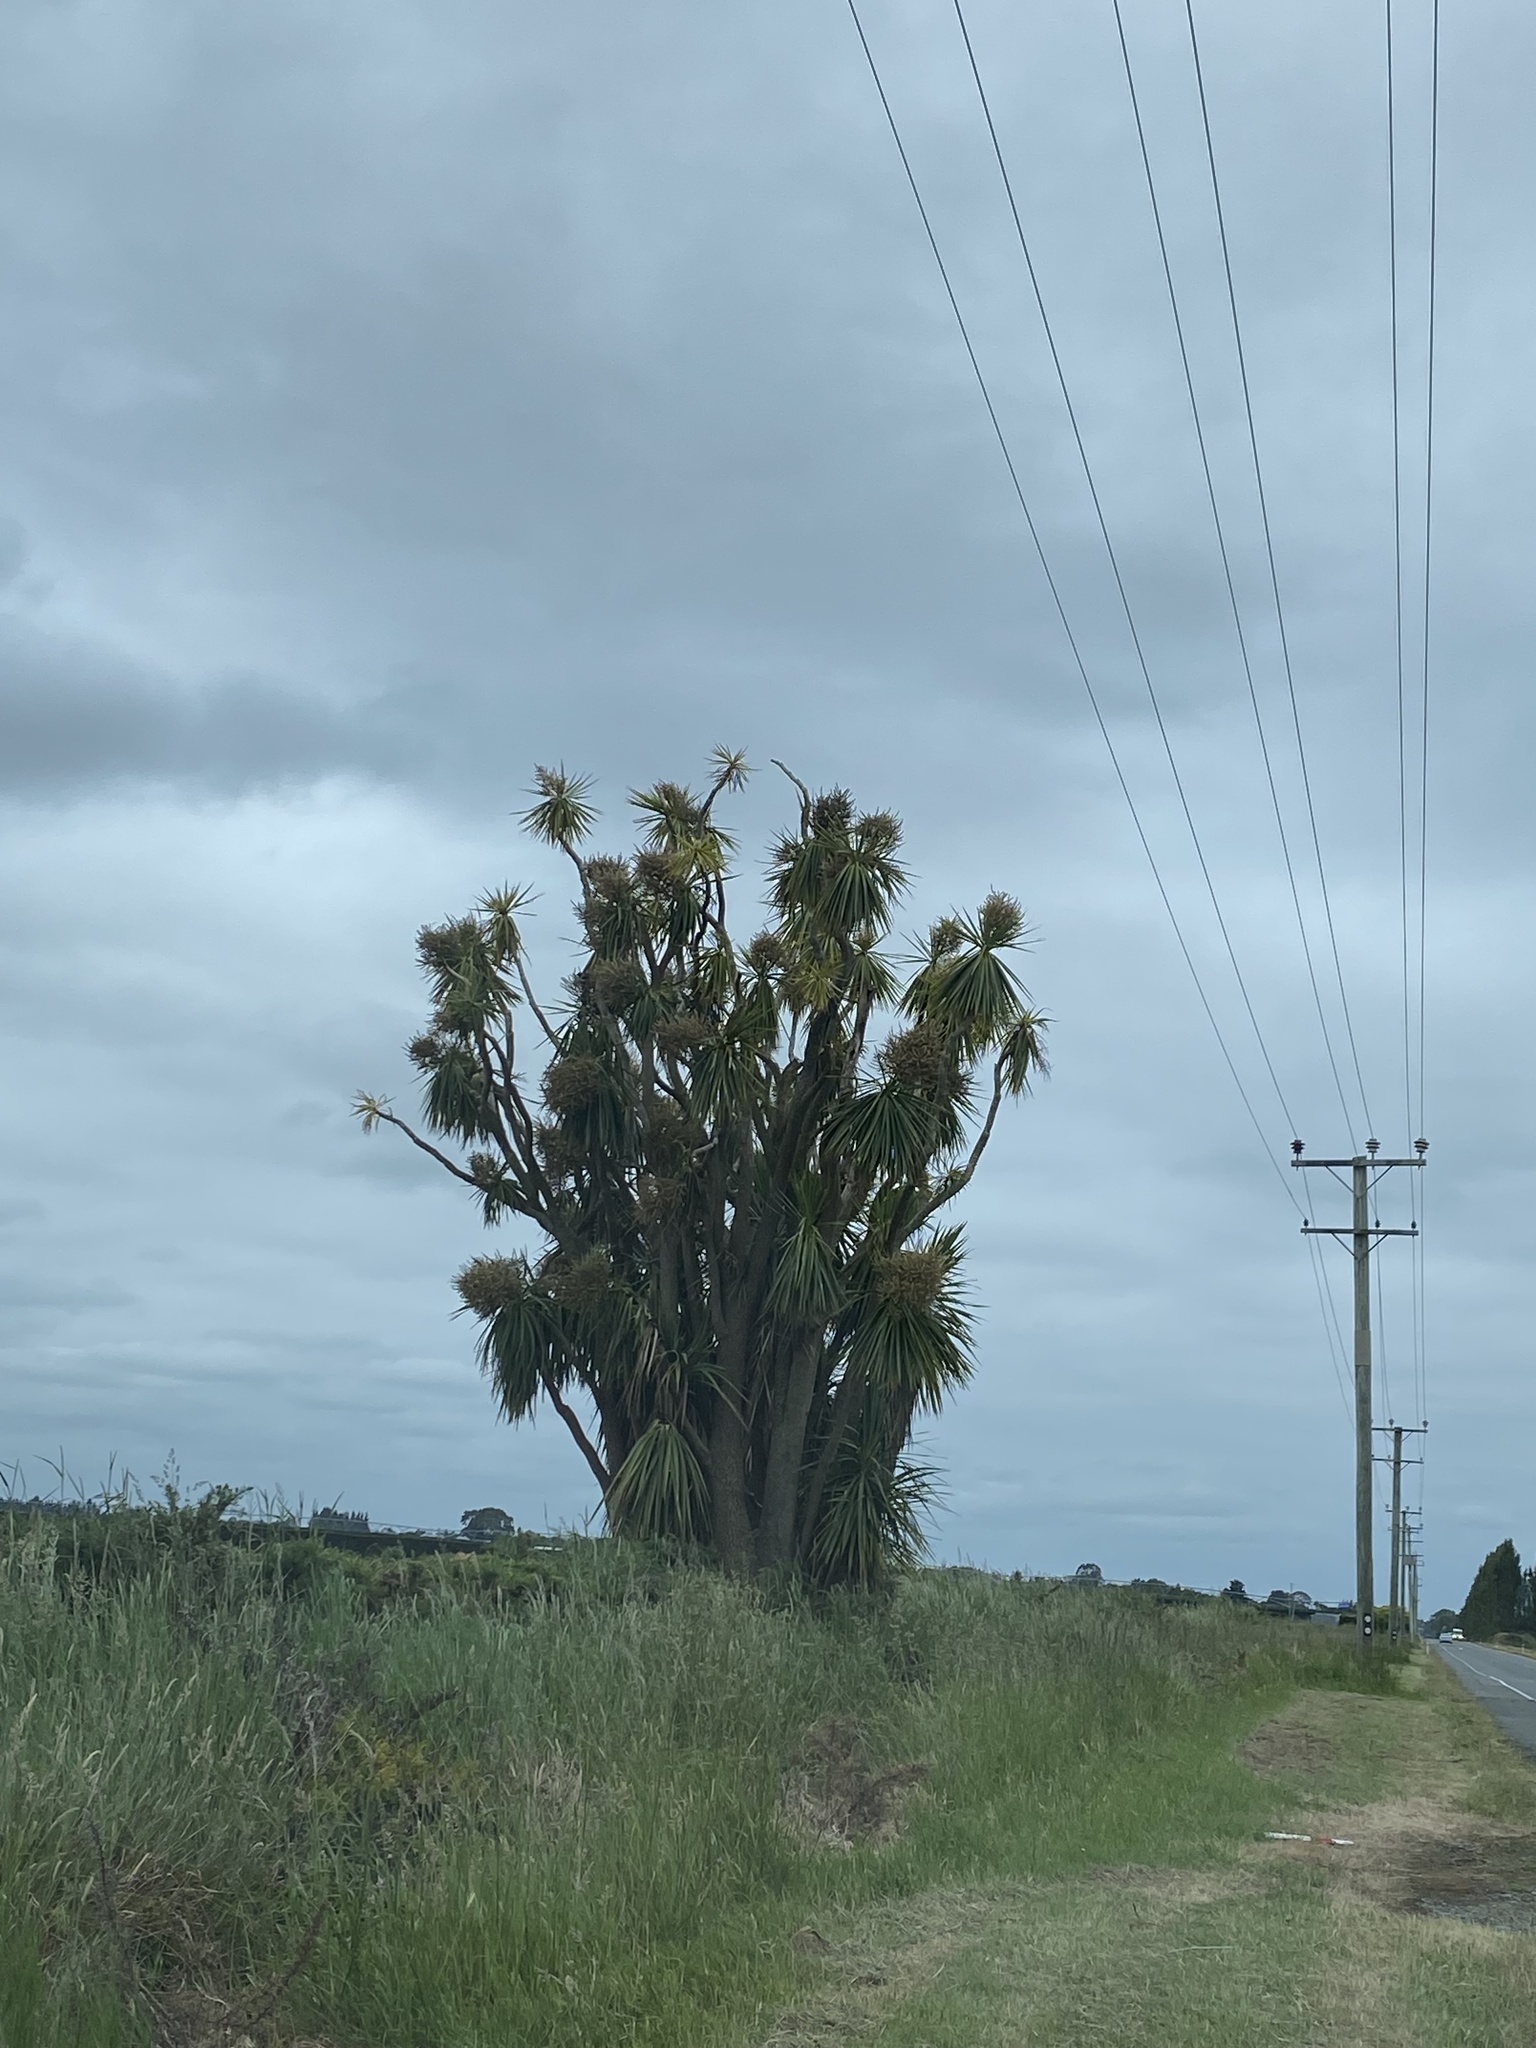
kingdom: Plantae
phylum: Tracheophyta
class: Liliopsida
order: Asparagales
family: Asparagaceae
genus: Cordyline
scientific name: Cordyline australis
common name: Cabbage-palm
